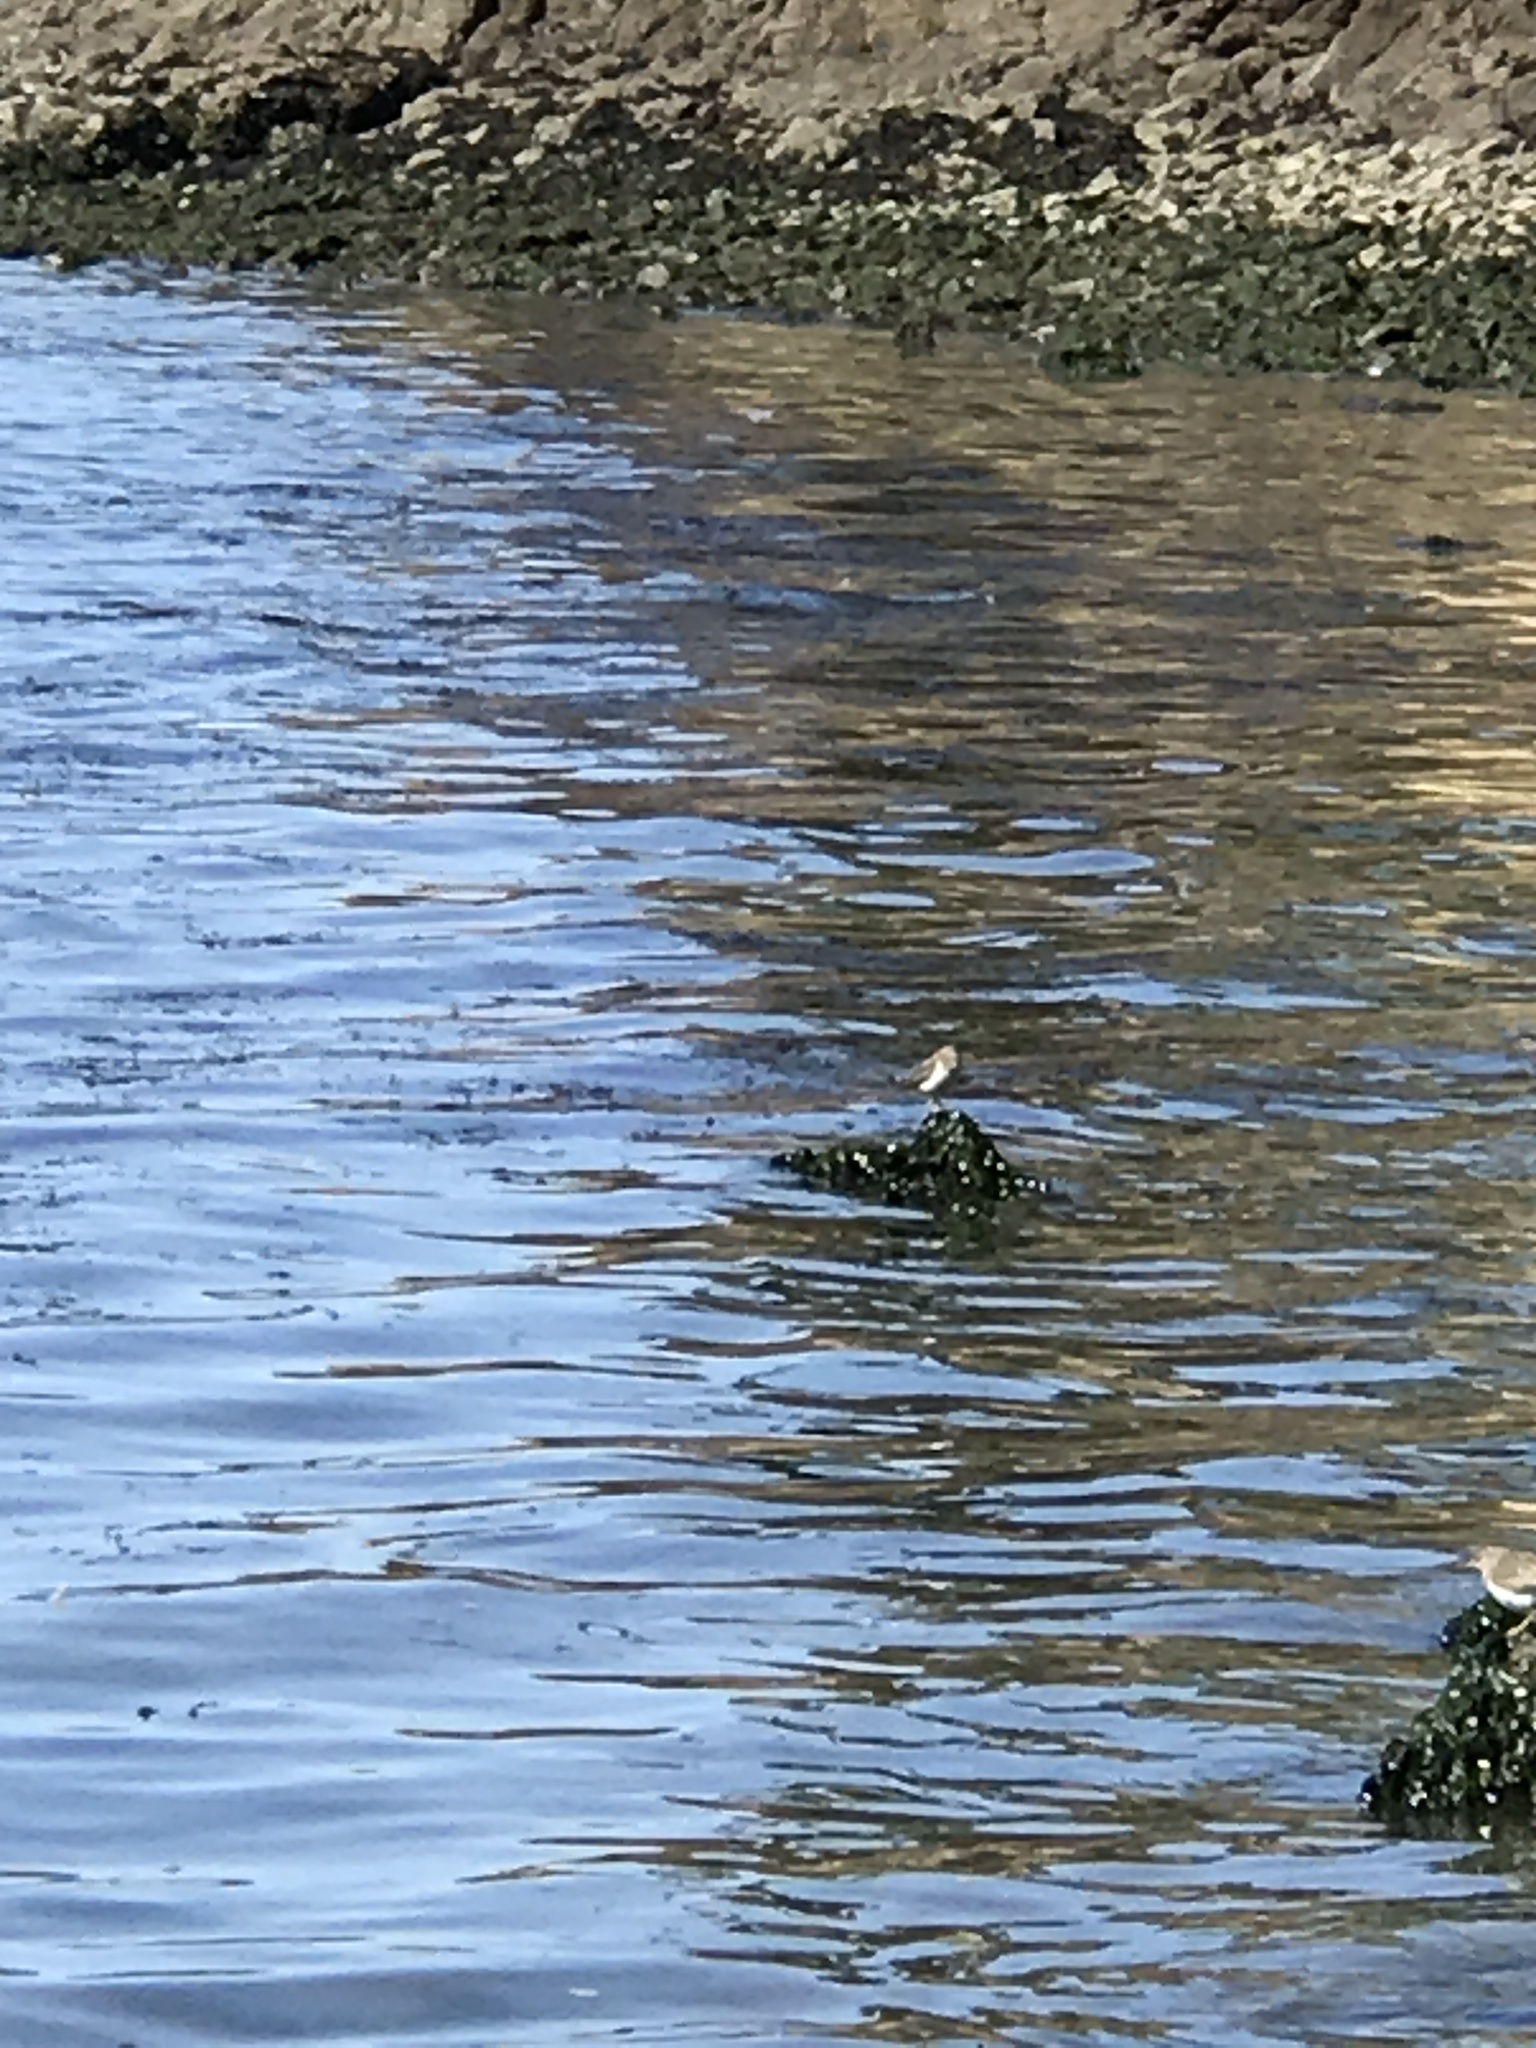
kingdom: Animalia
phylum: Chordata
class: Aves
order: Charadriiformes
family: Scolopacidae
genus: Actitis
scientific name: Actitis macularius
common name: Spotted sandpiper
